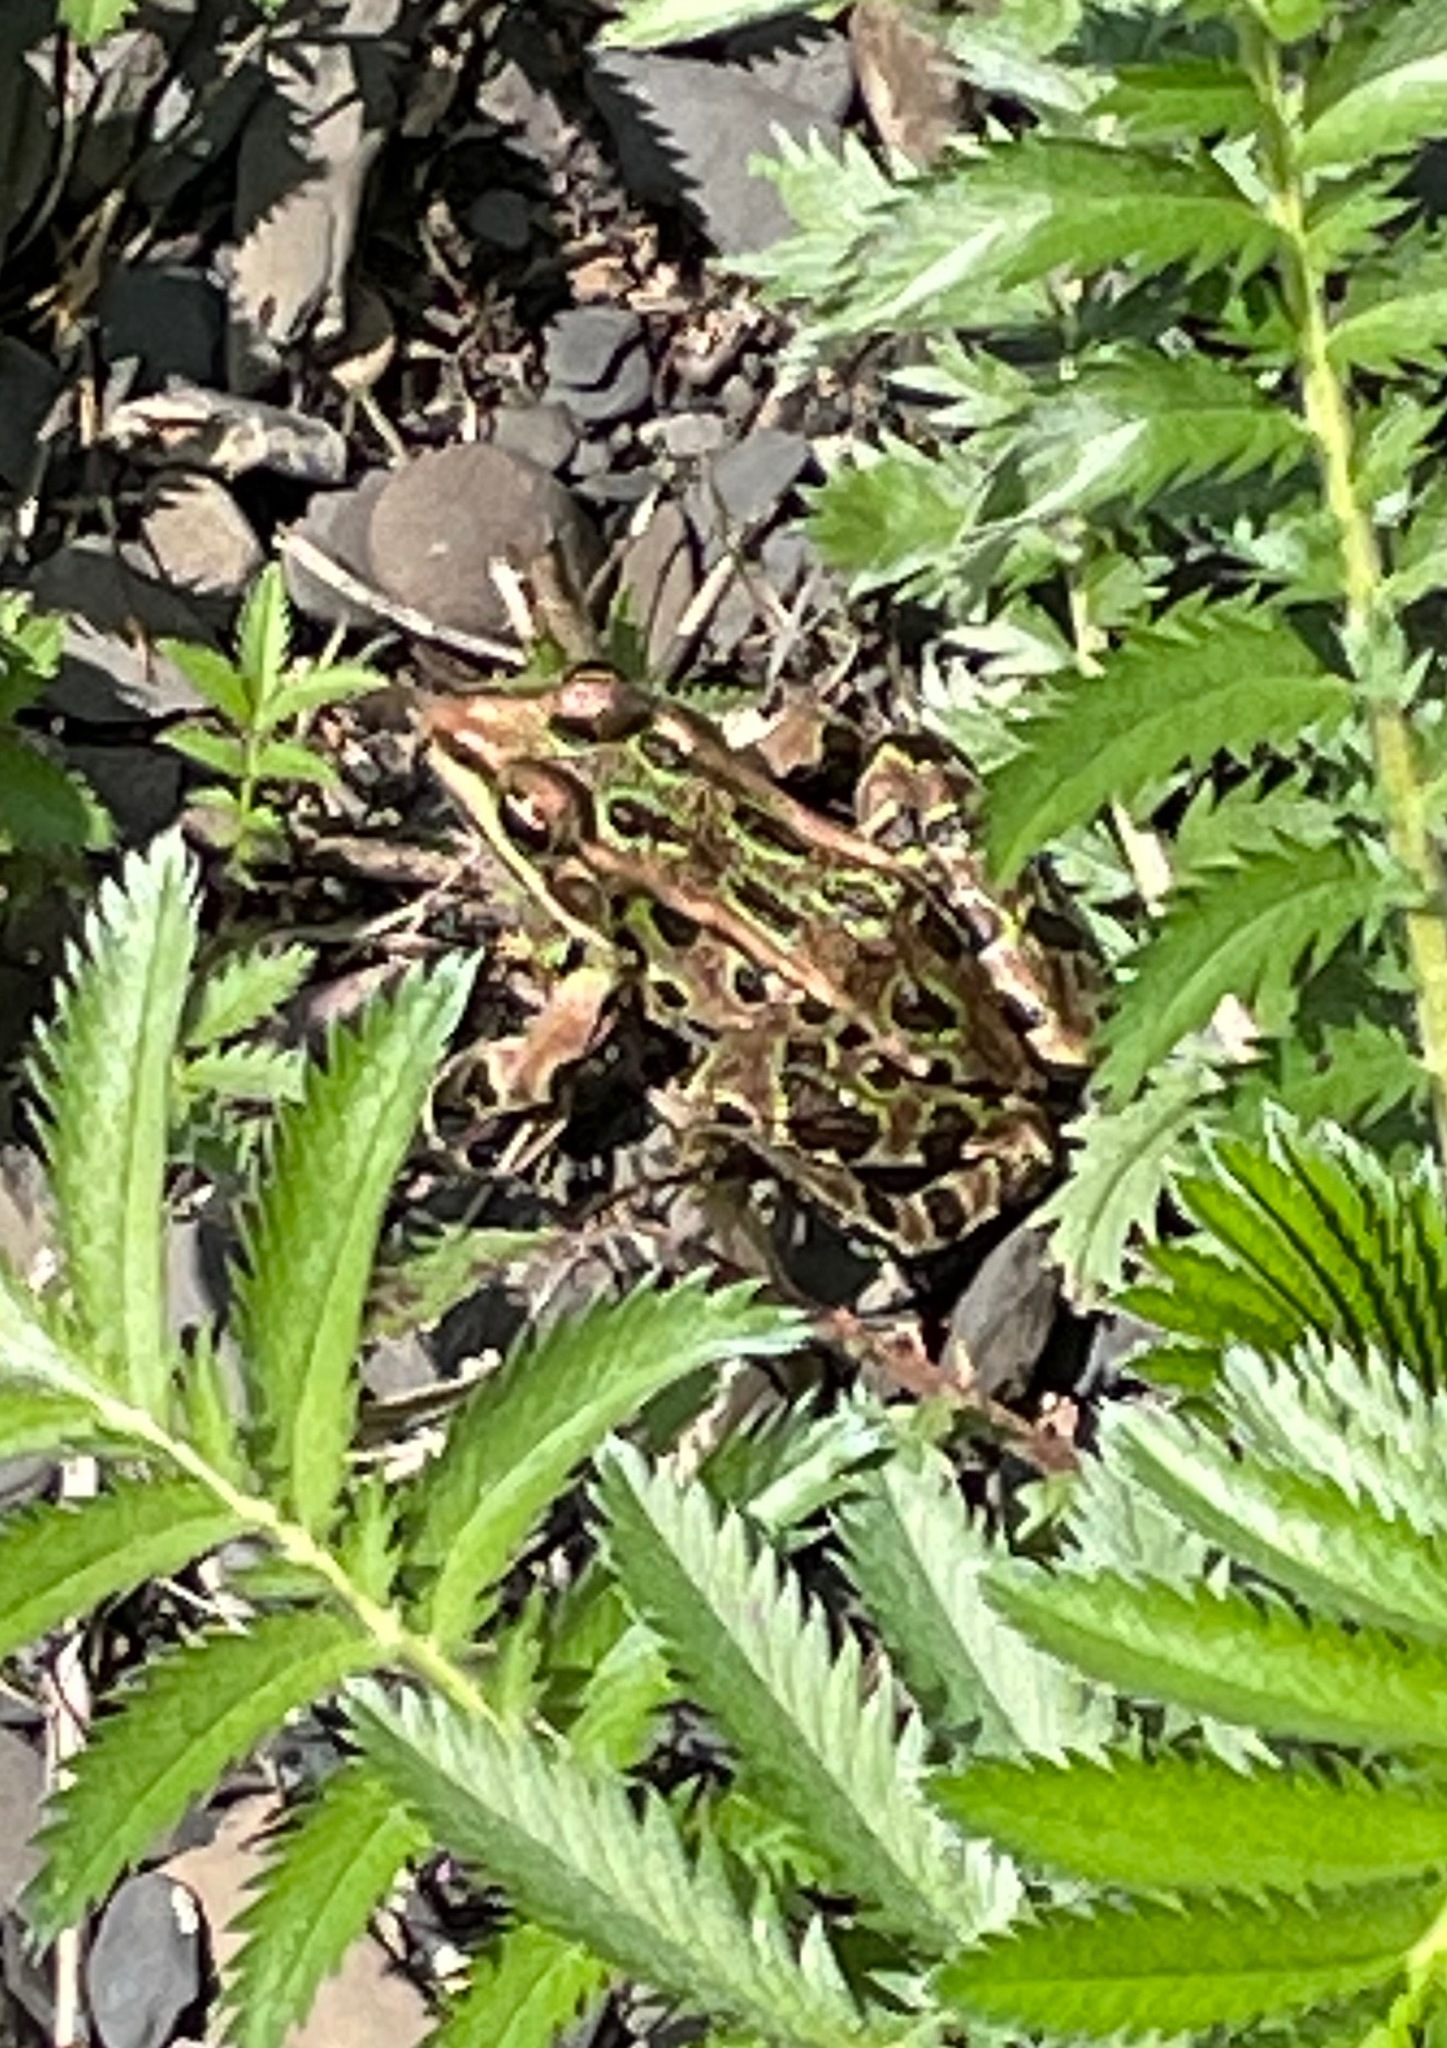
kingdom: Animalia
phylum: Chordata
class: Amphibia
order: Anura
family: Ranidae
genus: Lithobates
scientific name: Lithobates pipiens
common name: Northern leopard frog
